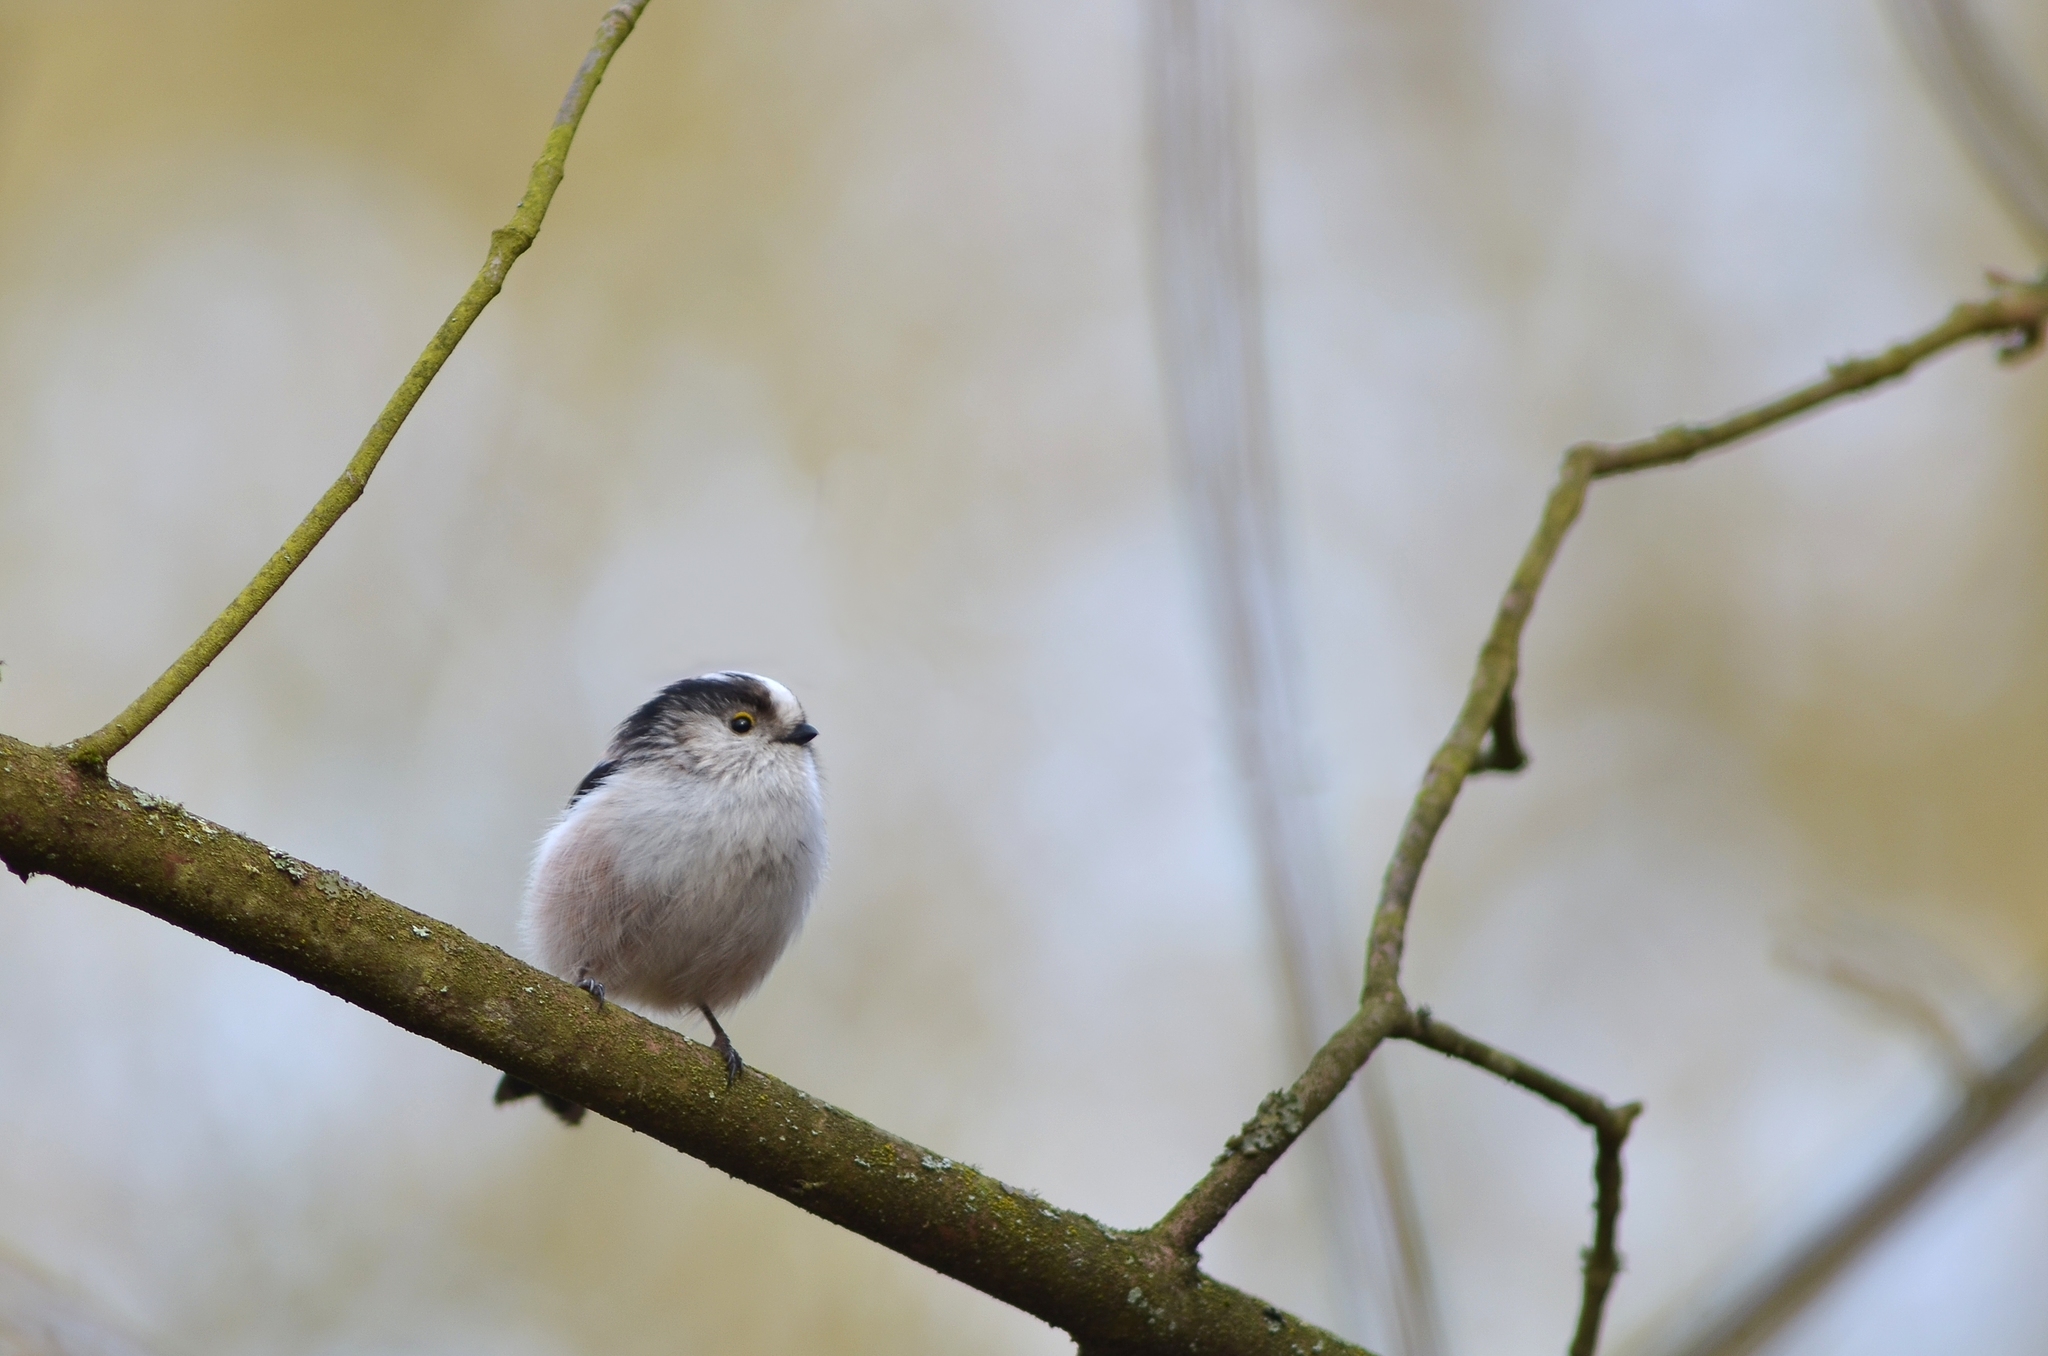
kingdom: Animalia
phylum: Chordata
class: Aves
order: Passeriformes
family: Aegithalidae
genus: Aegithalos
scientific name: Aegithalos caudatus
